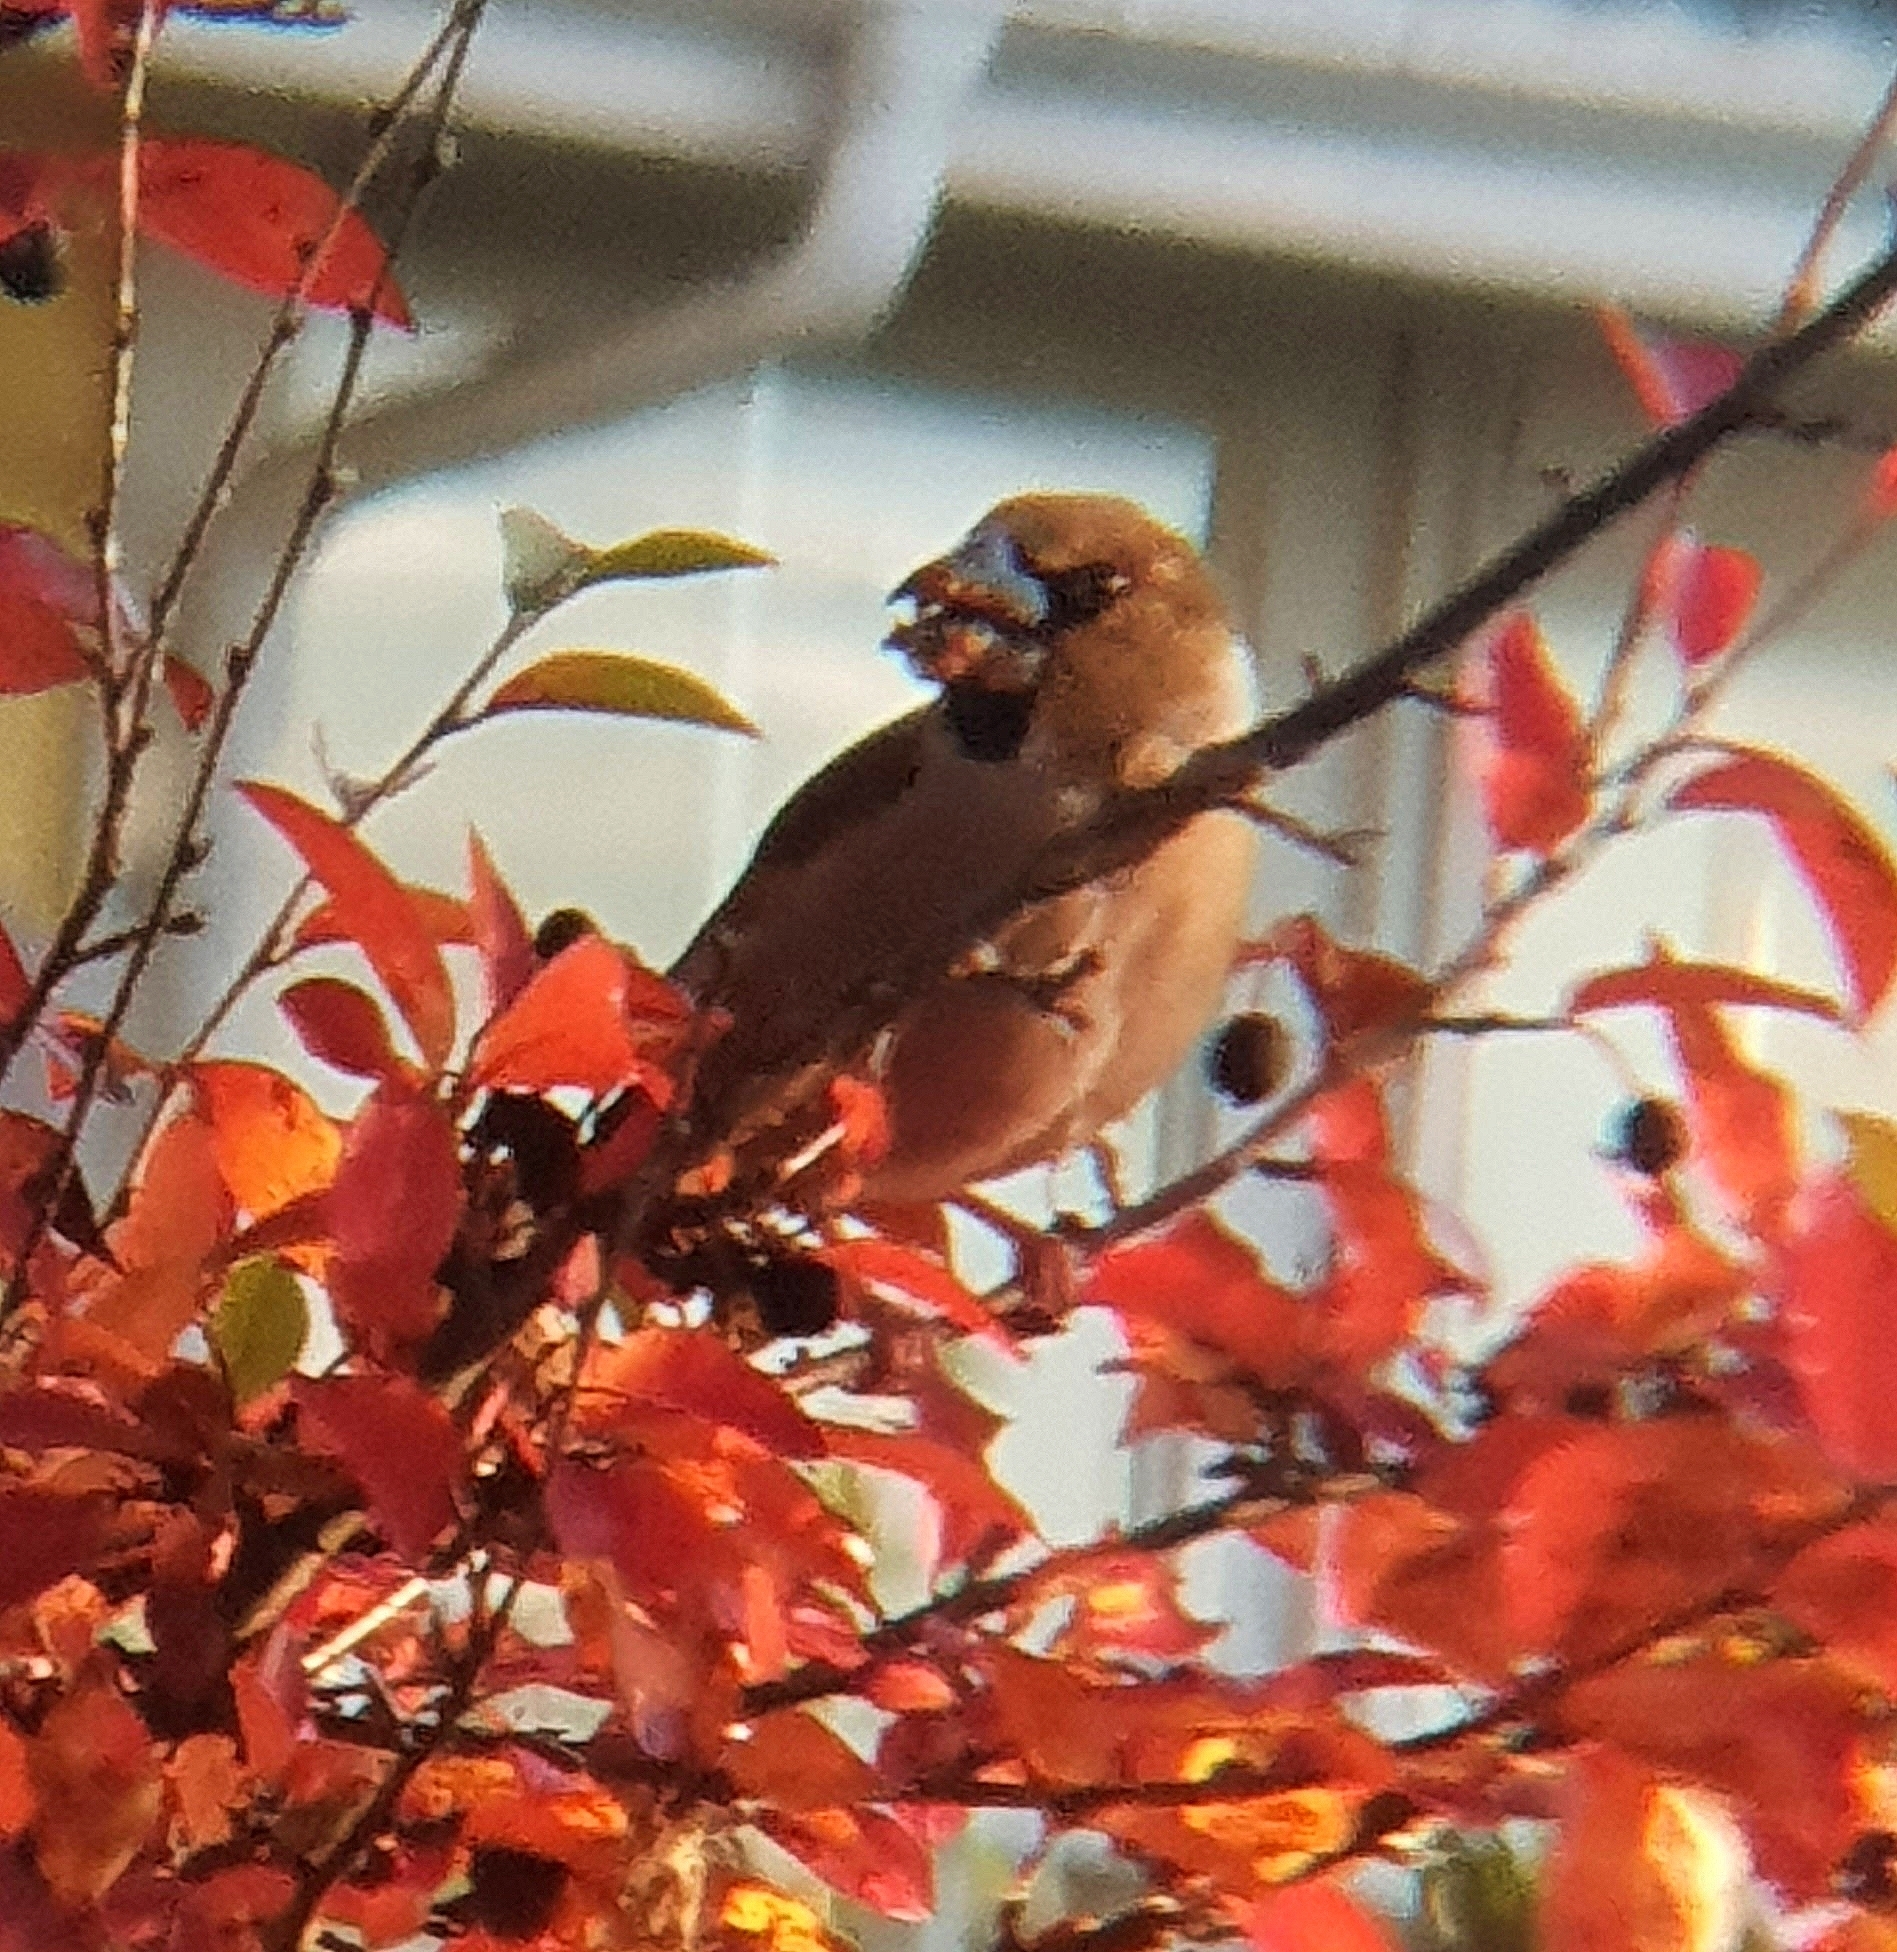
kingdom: Animalia
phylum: Chordata
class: Aves
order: Passeriformes
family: Fringillidae
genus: Coccothraustes
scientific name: Coccothraustes coccothraustes
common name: Hawfinch
